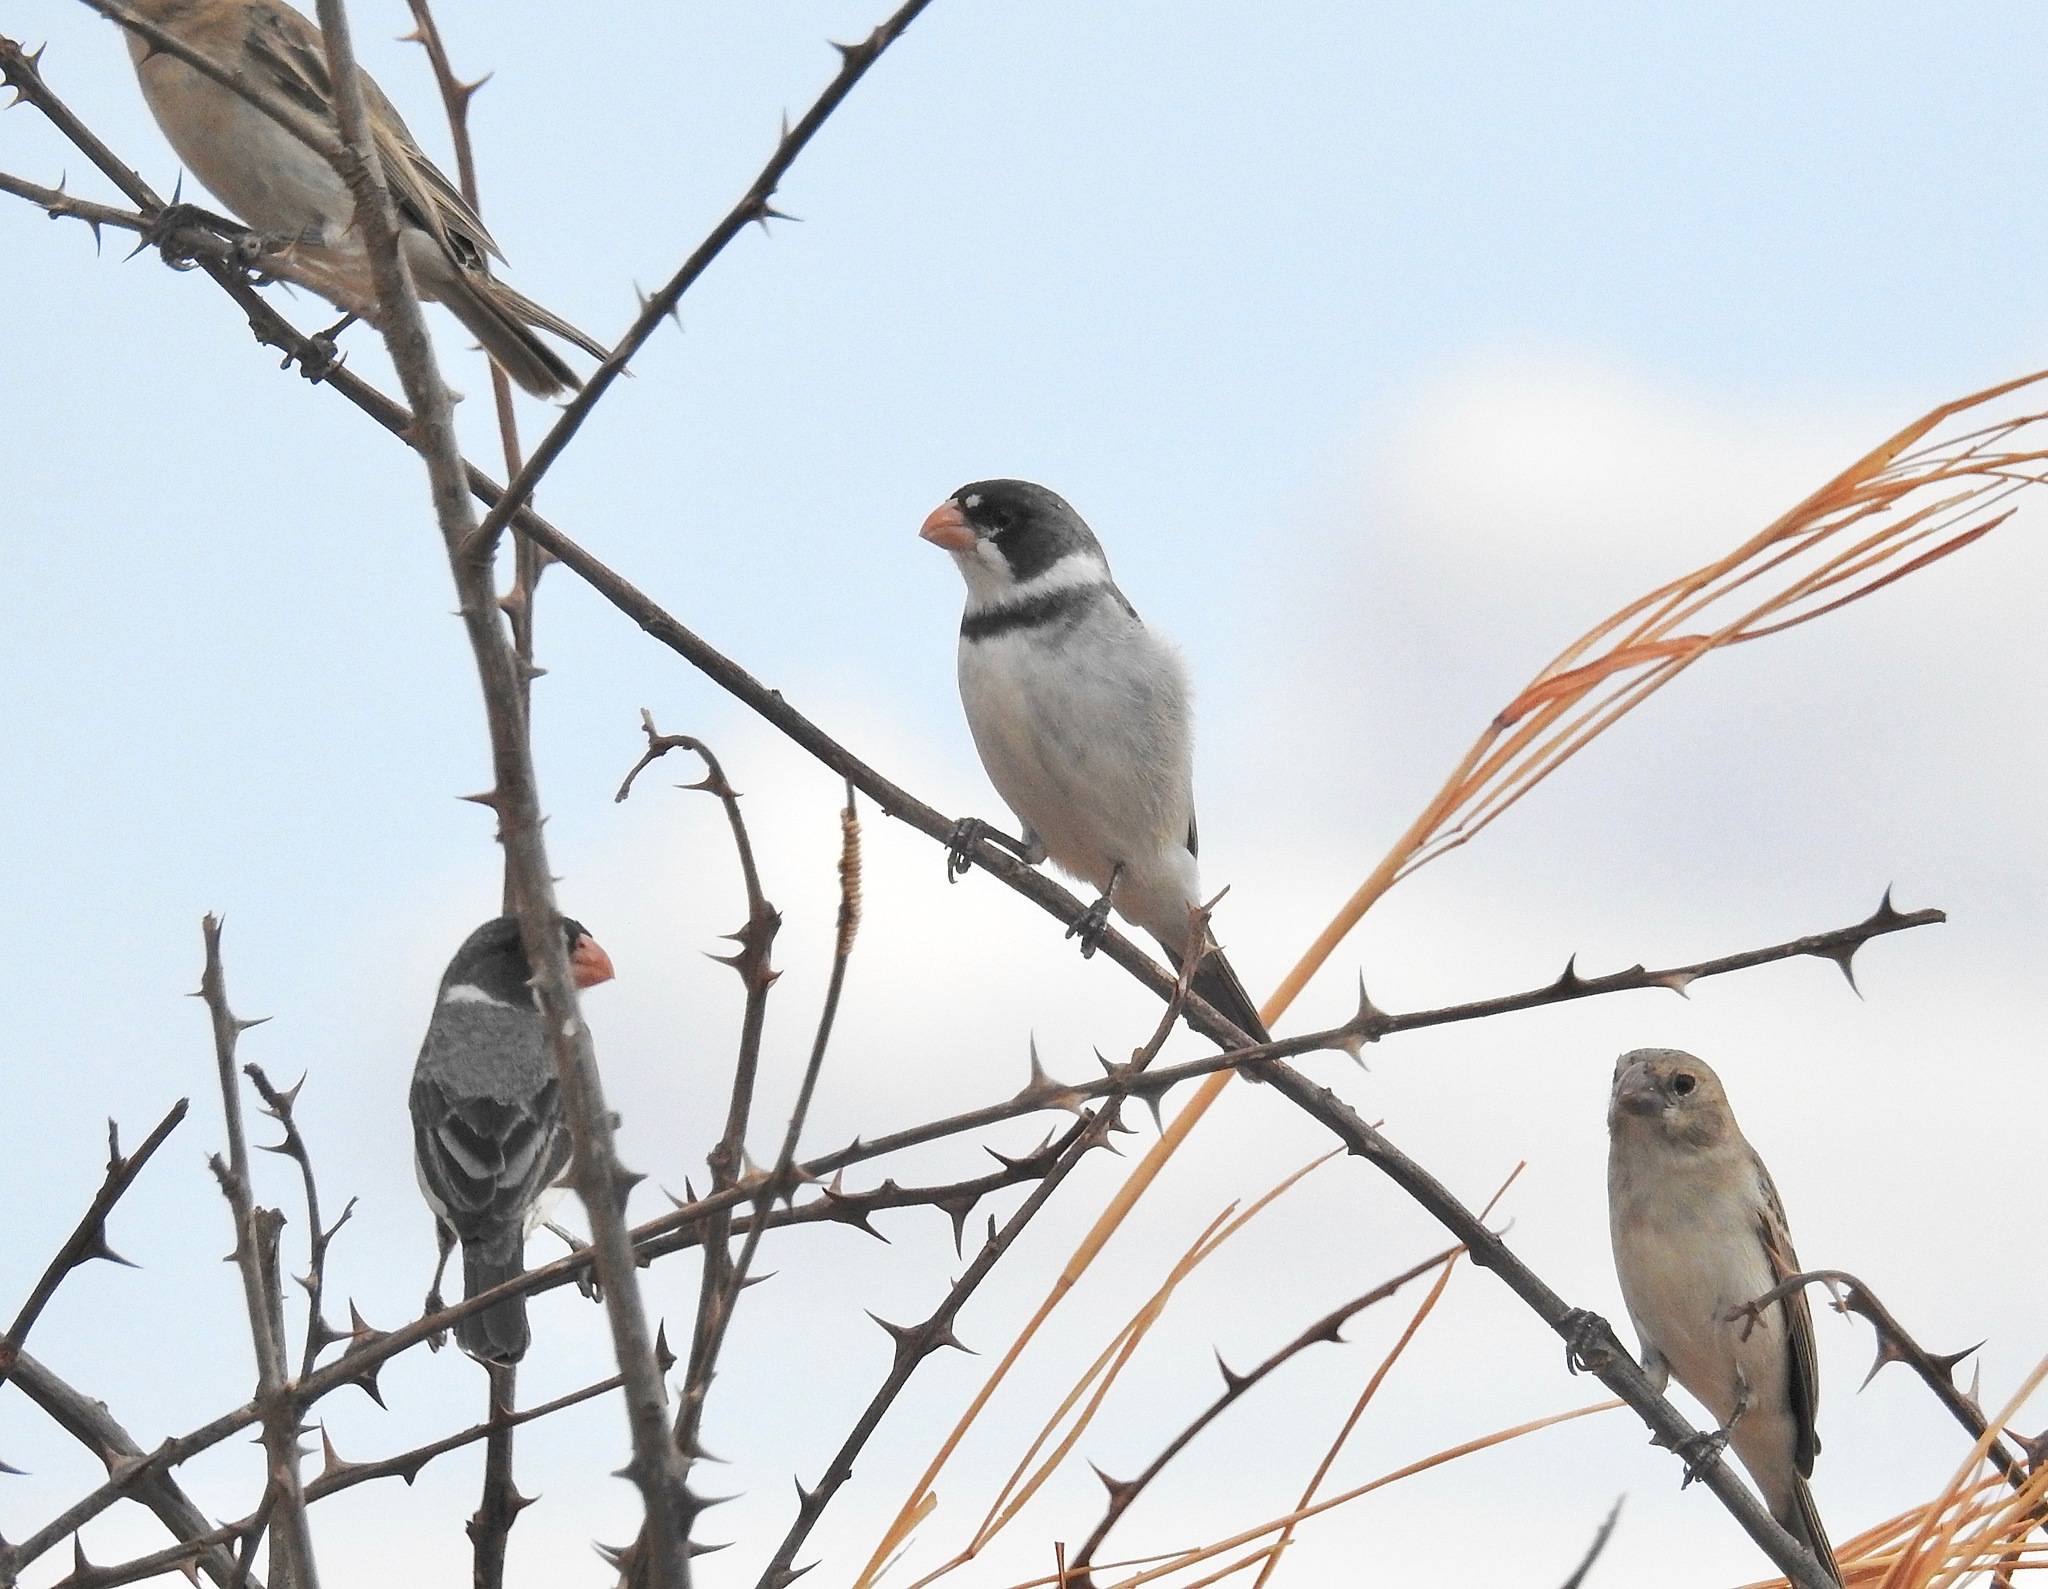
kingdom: Animalia
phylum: Chordata
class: Aves
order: Passeriformes
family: Thraupidae
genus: Sporophila
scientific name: Sporophila albogularis
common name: White-throated seedeater
